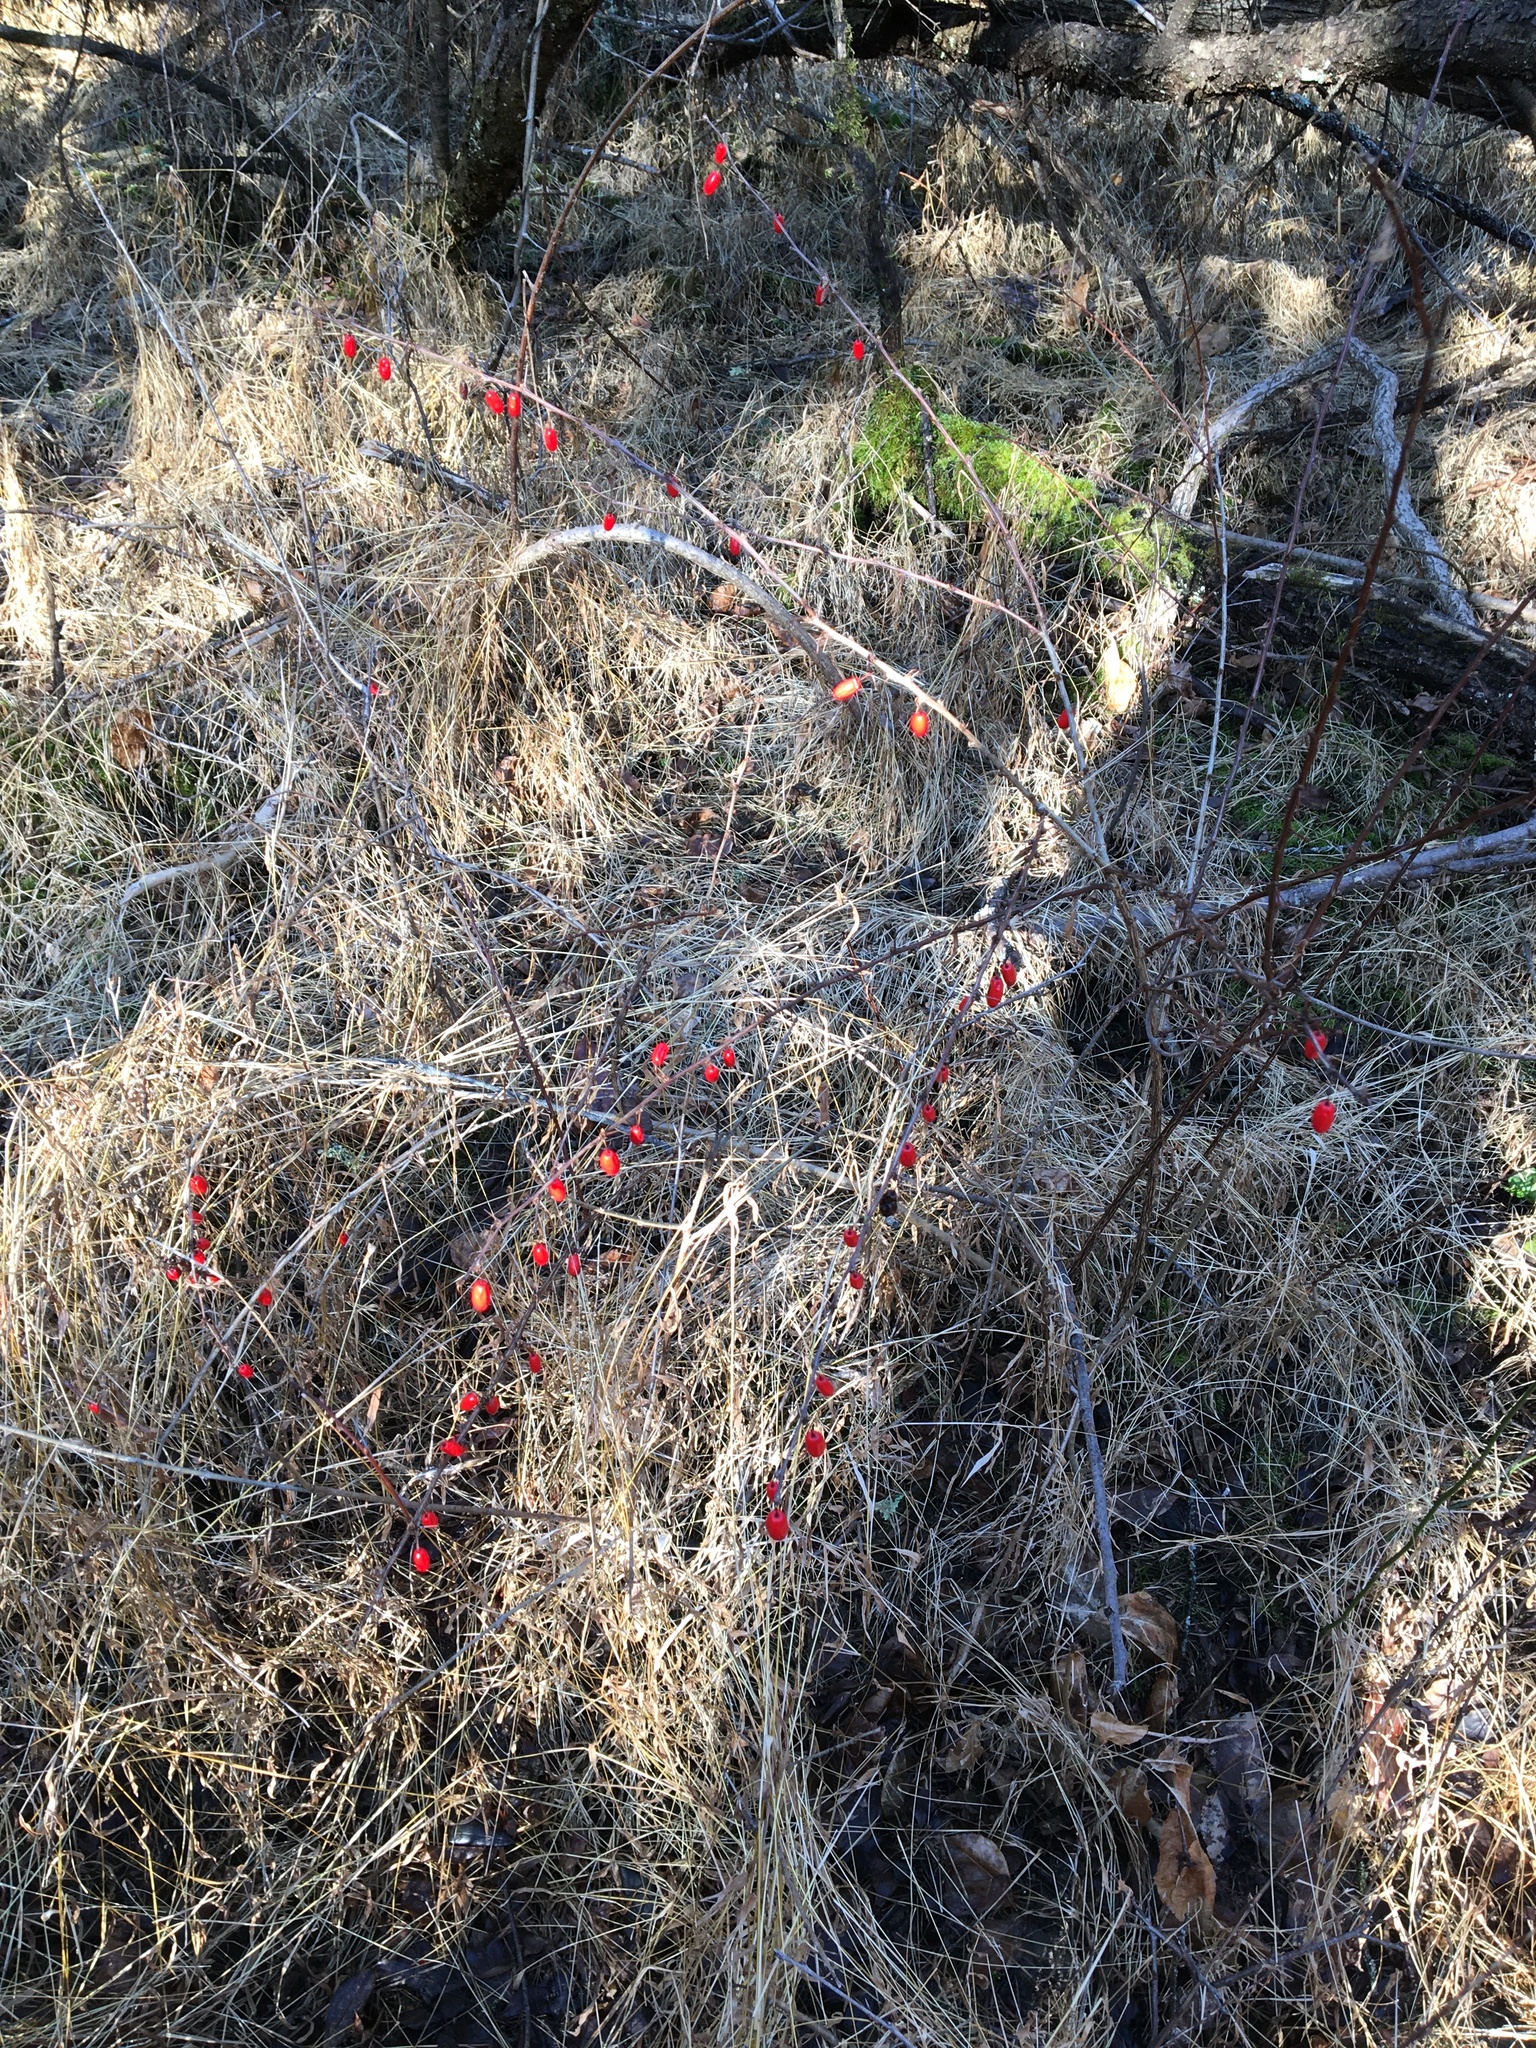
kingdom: Plantae
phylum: Tracheophyta
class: Magnoliopsida
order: Ranunculales
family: Berberidaceae
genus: Berberis
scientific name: Berberis thunbergii
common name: Japanese barberry
